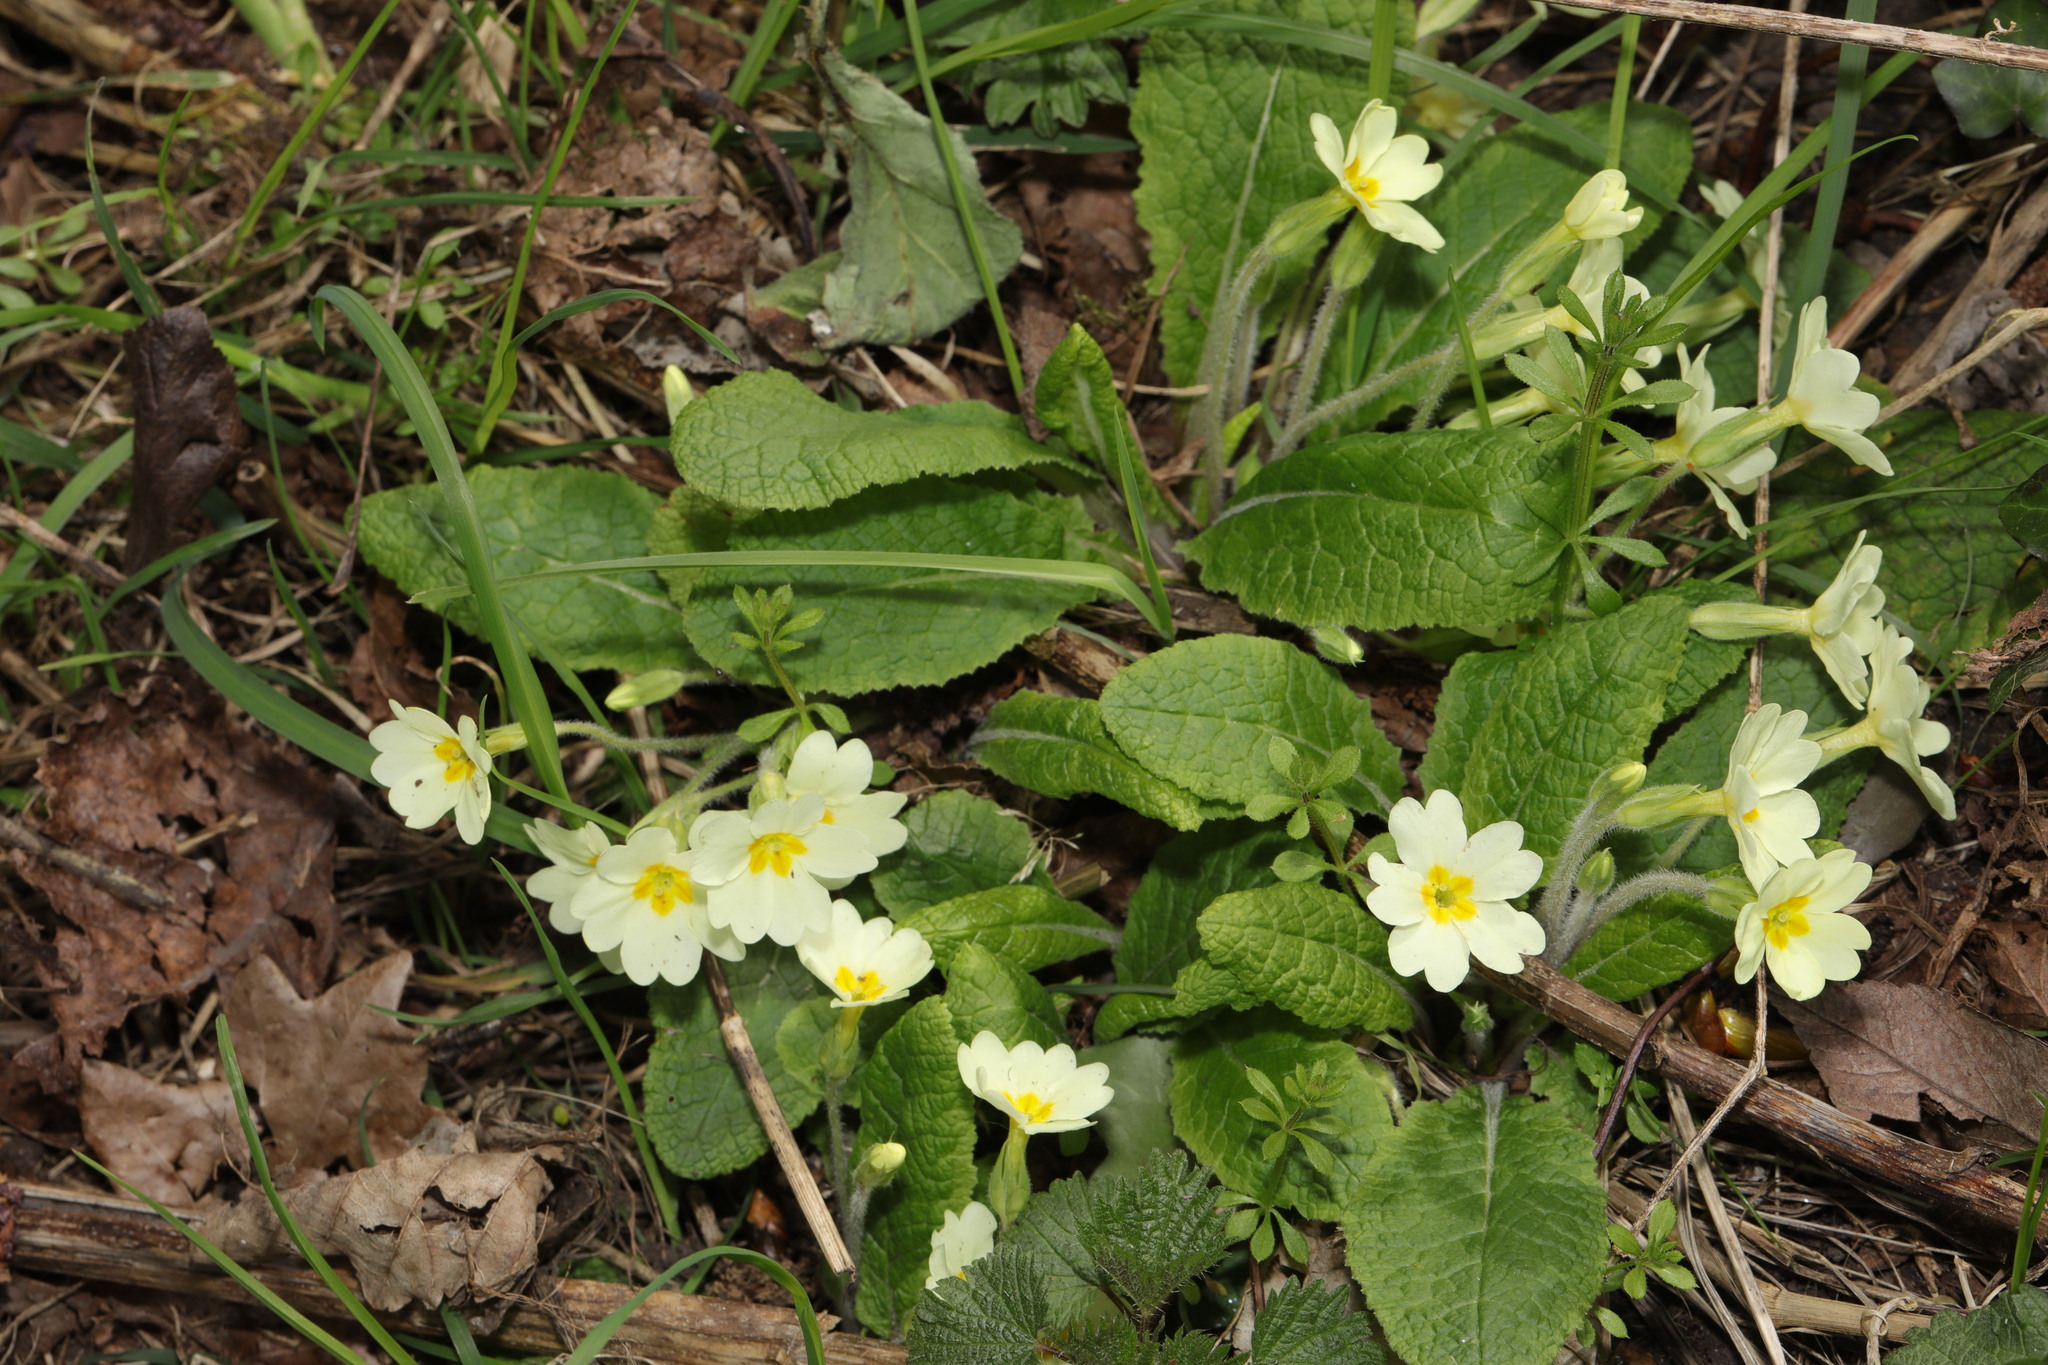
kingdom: Plantae
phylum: Tracheophyta
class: Magnoliopsida
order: Ericales
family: Primulaceae
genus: Primula
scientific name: Primula vulgaris
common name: Primrose
